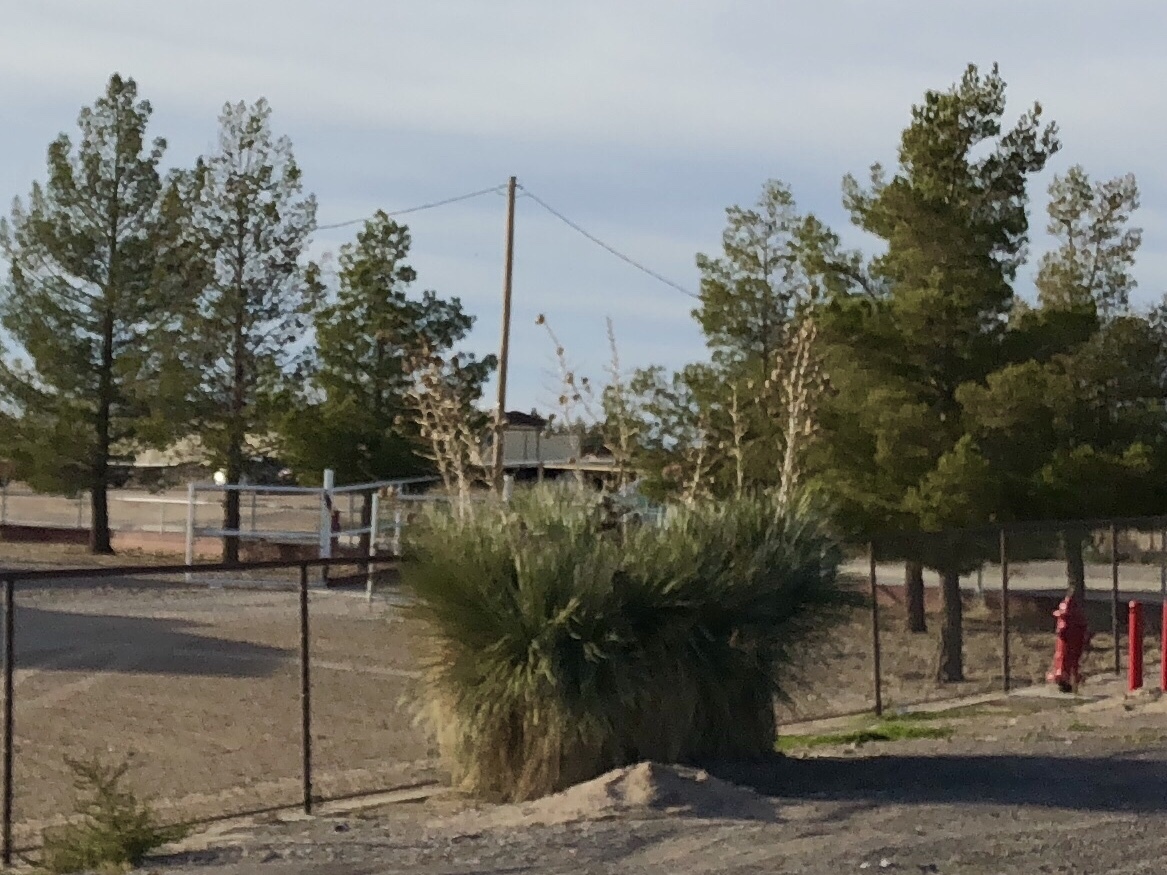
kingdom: Plantae
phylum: Tracheophyta
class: Liliopsida
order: Asparagales
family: Asparagaceae
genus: Yucca
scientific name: Yucca elata
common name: Palmella
